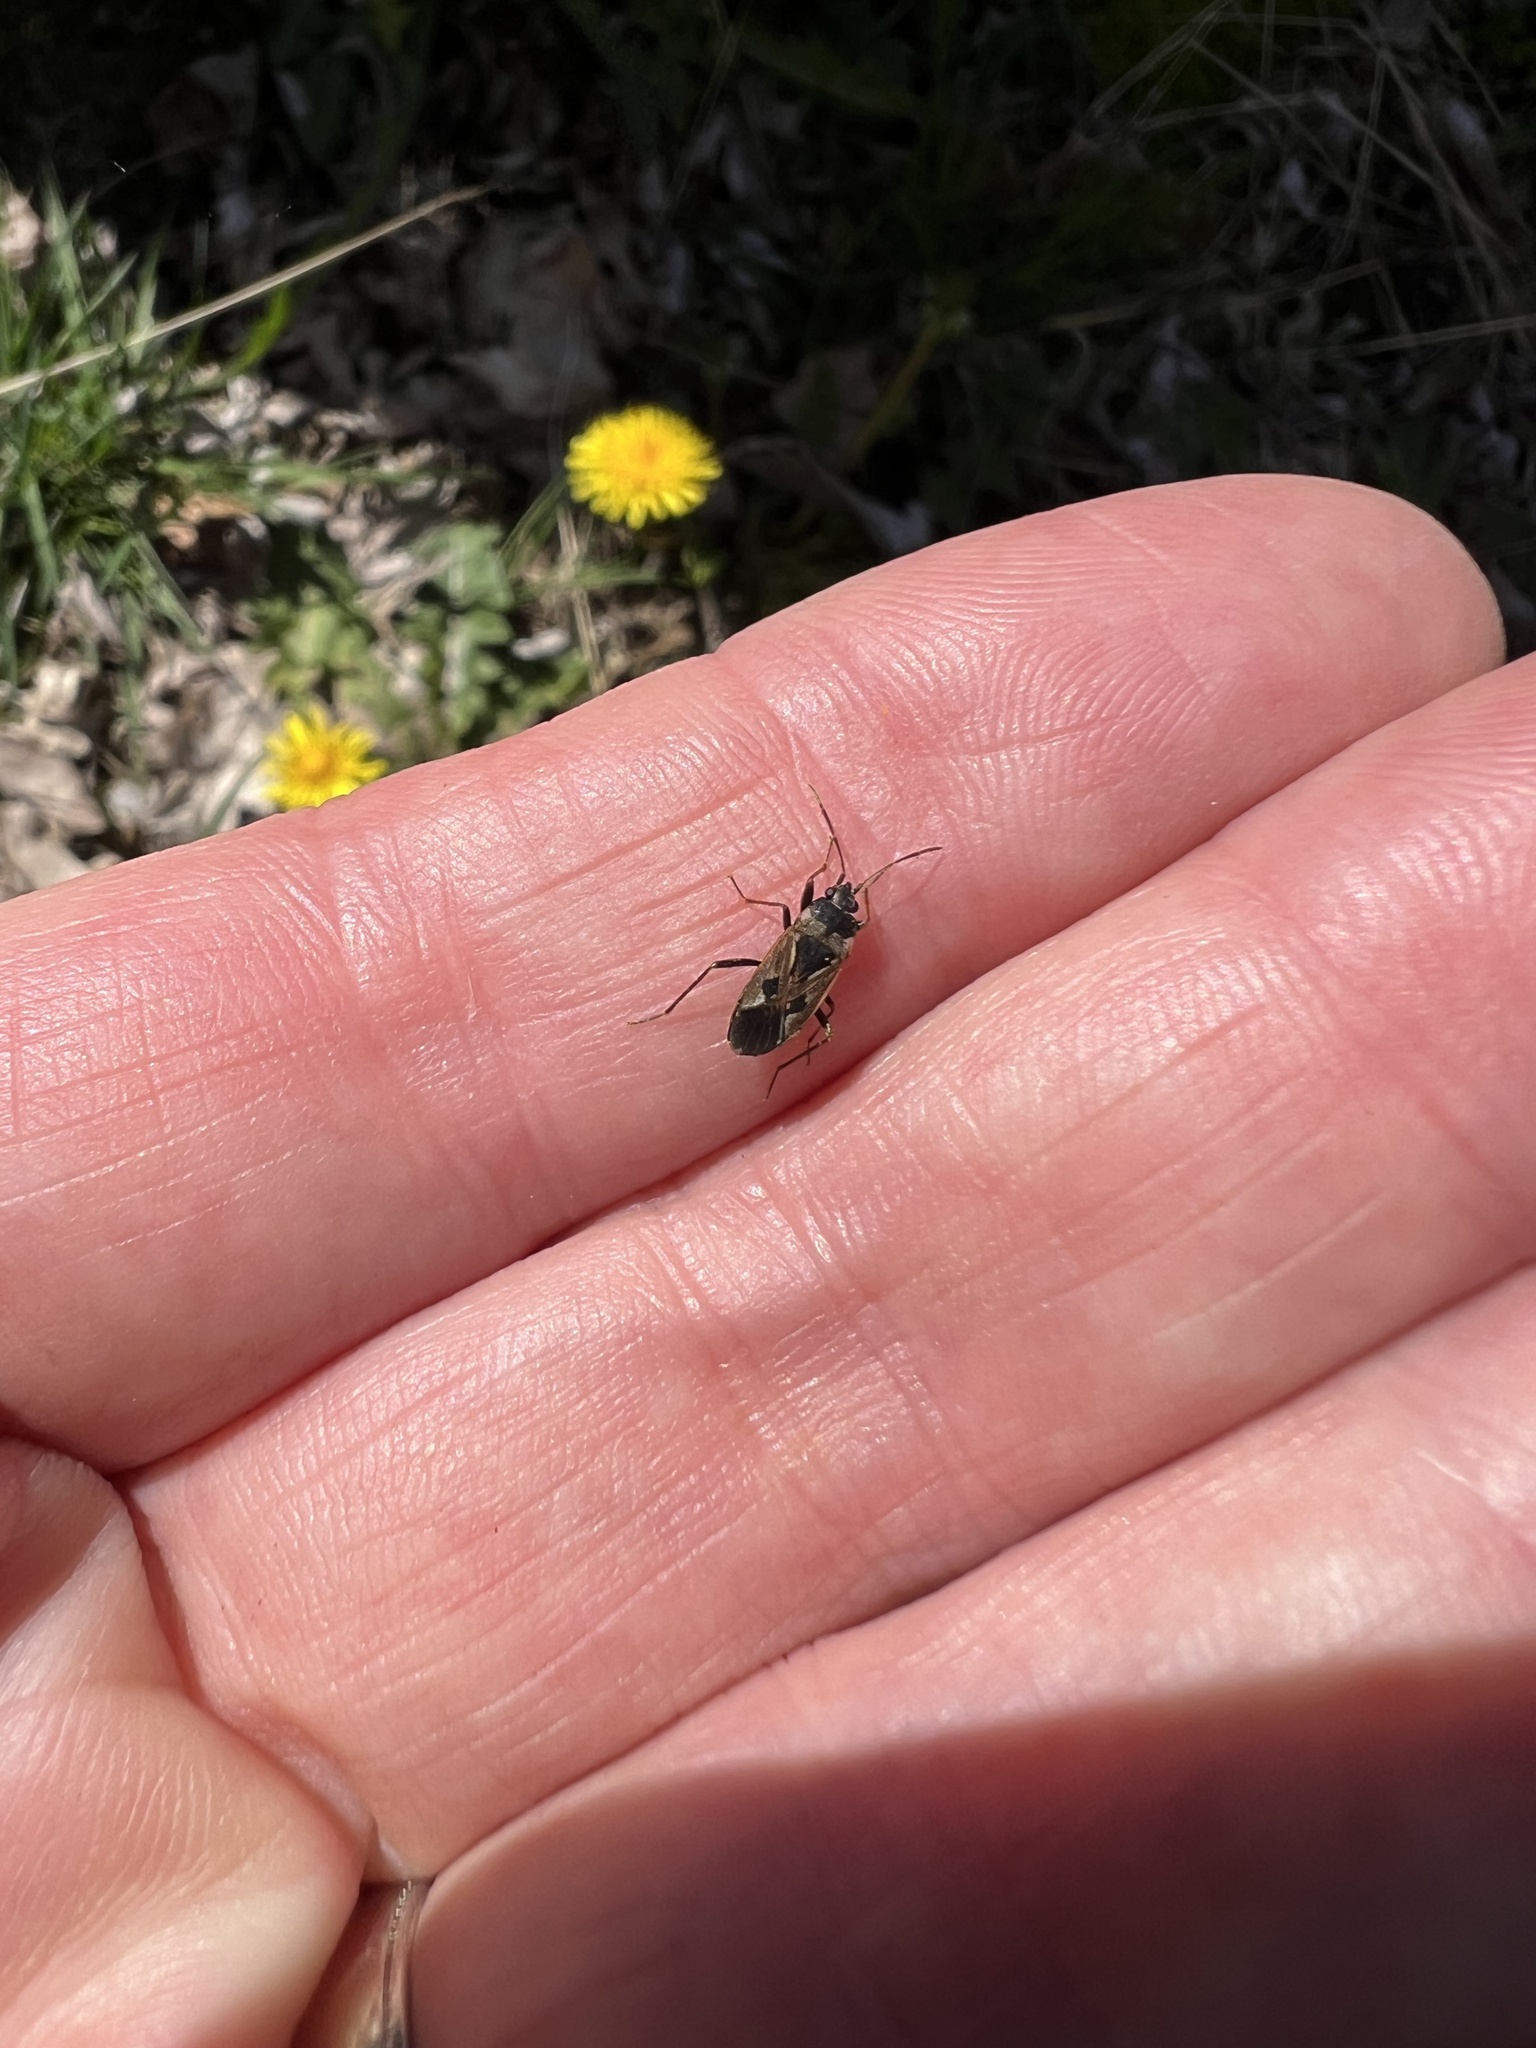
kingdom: Animalia
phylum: Arthropoda
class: Insecta
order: Hemiptera
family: Rhyparochromidae
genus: Rhyparochromus
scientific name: Rhyparochromus vulgaris
